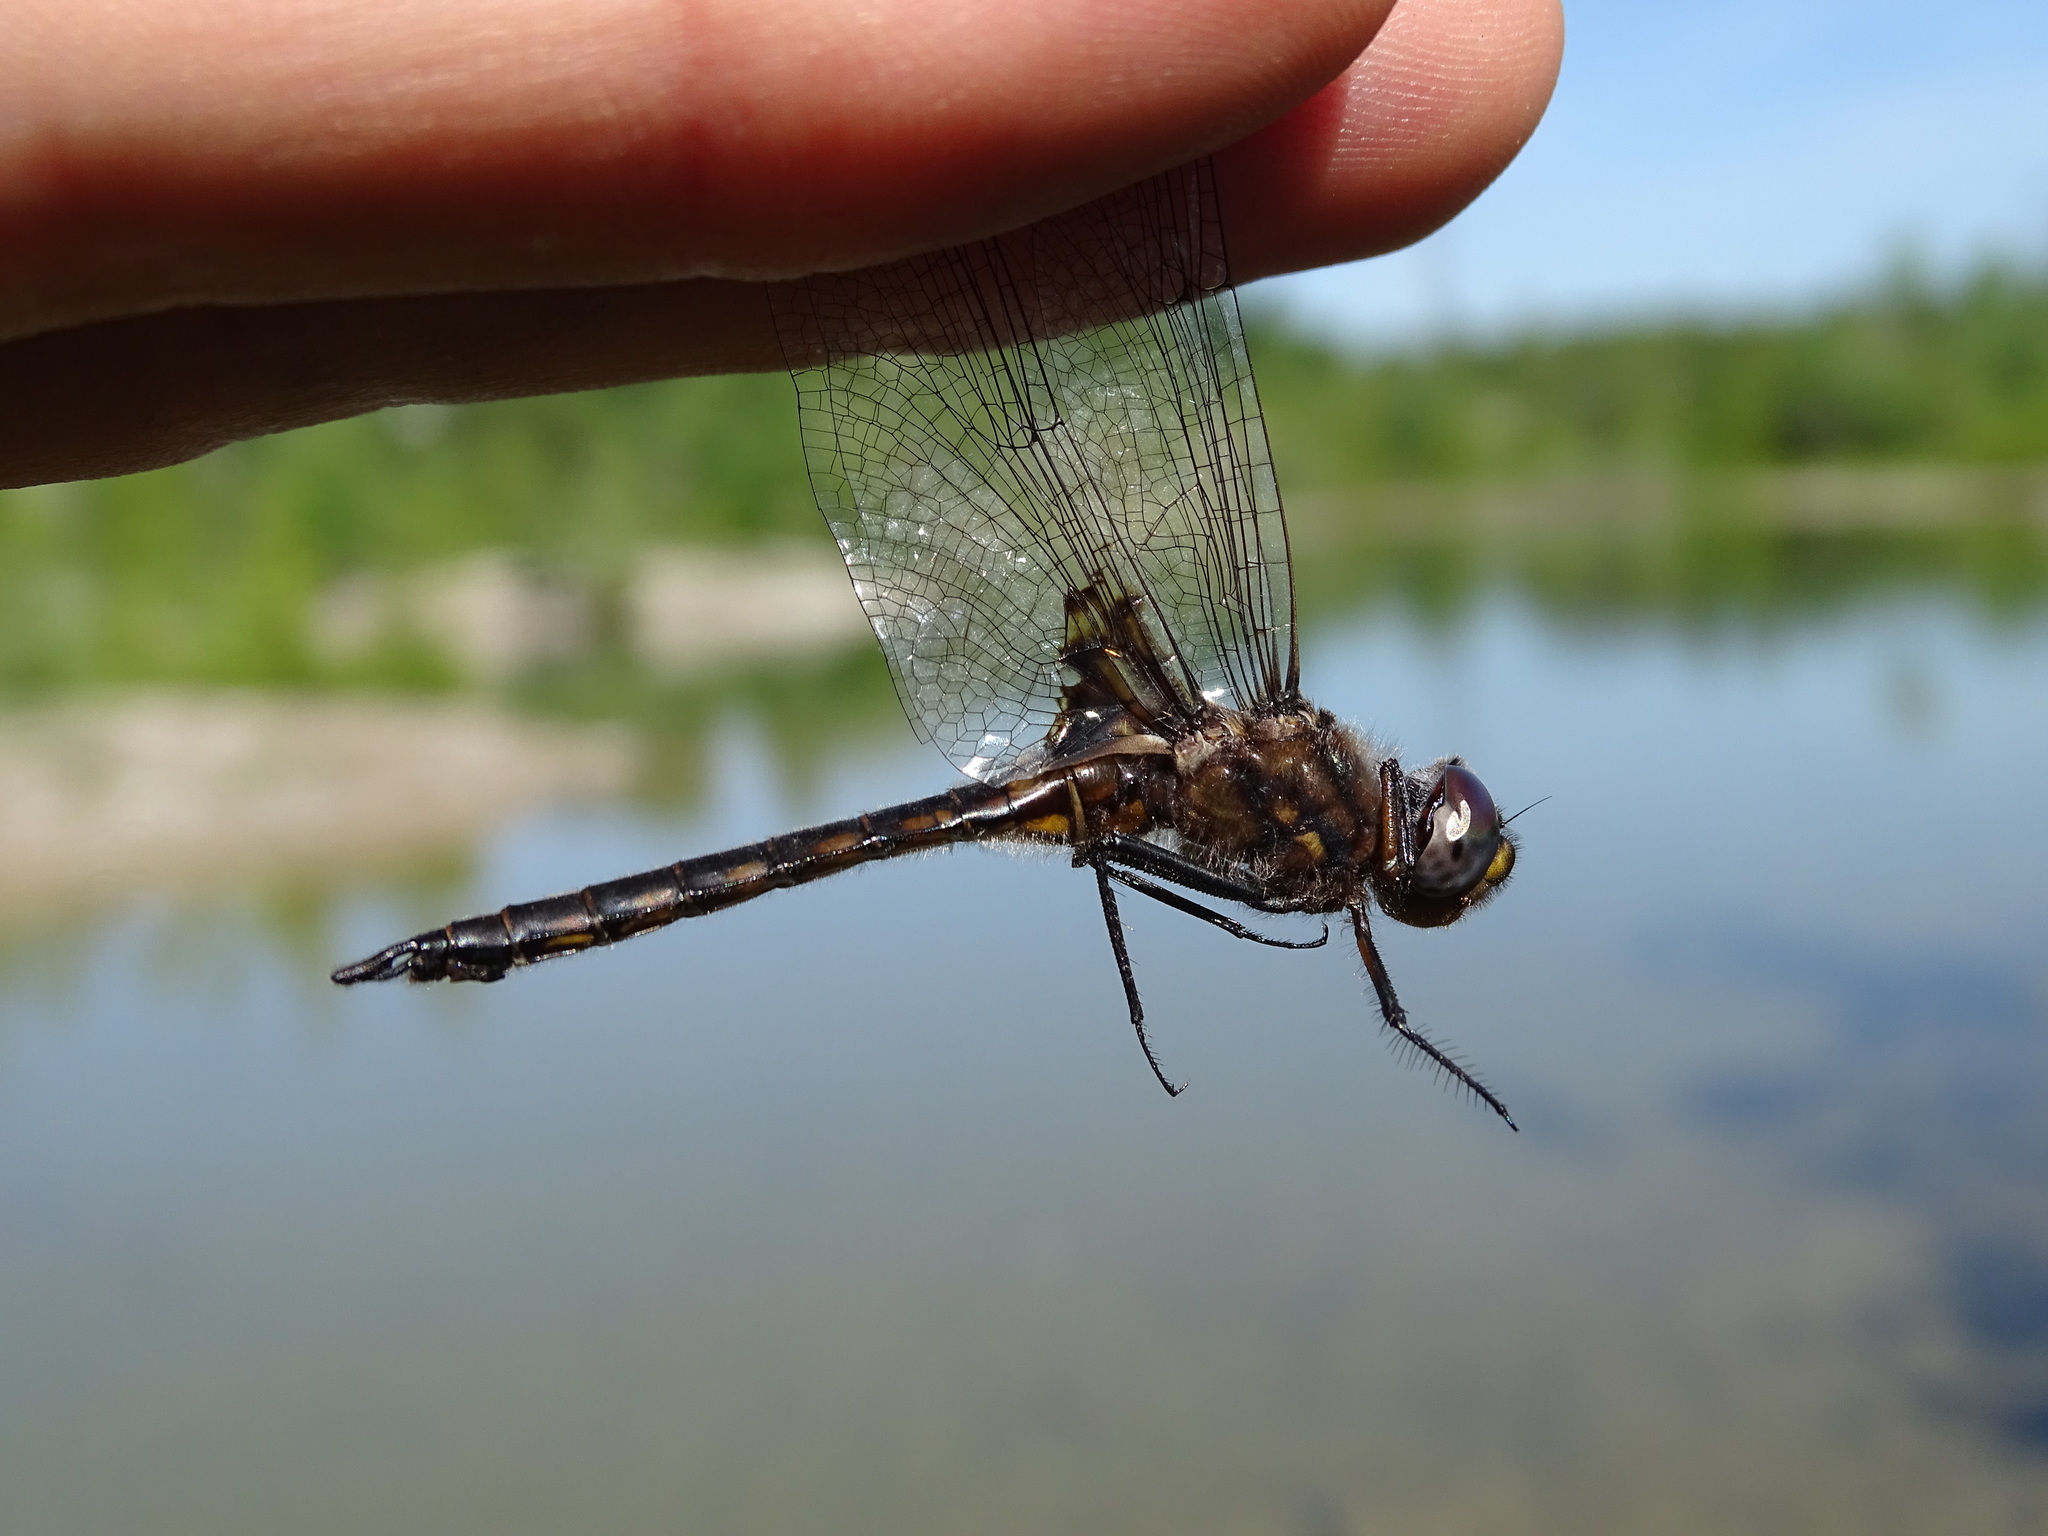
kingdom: Animalia
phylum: Arthropoda
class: Insecta
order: Odonata
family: Corduliidae
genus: Epitheca
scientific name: Epitheca cynosura
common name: Common baskettail
